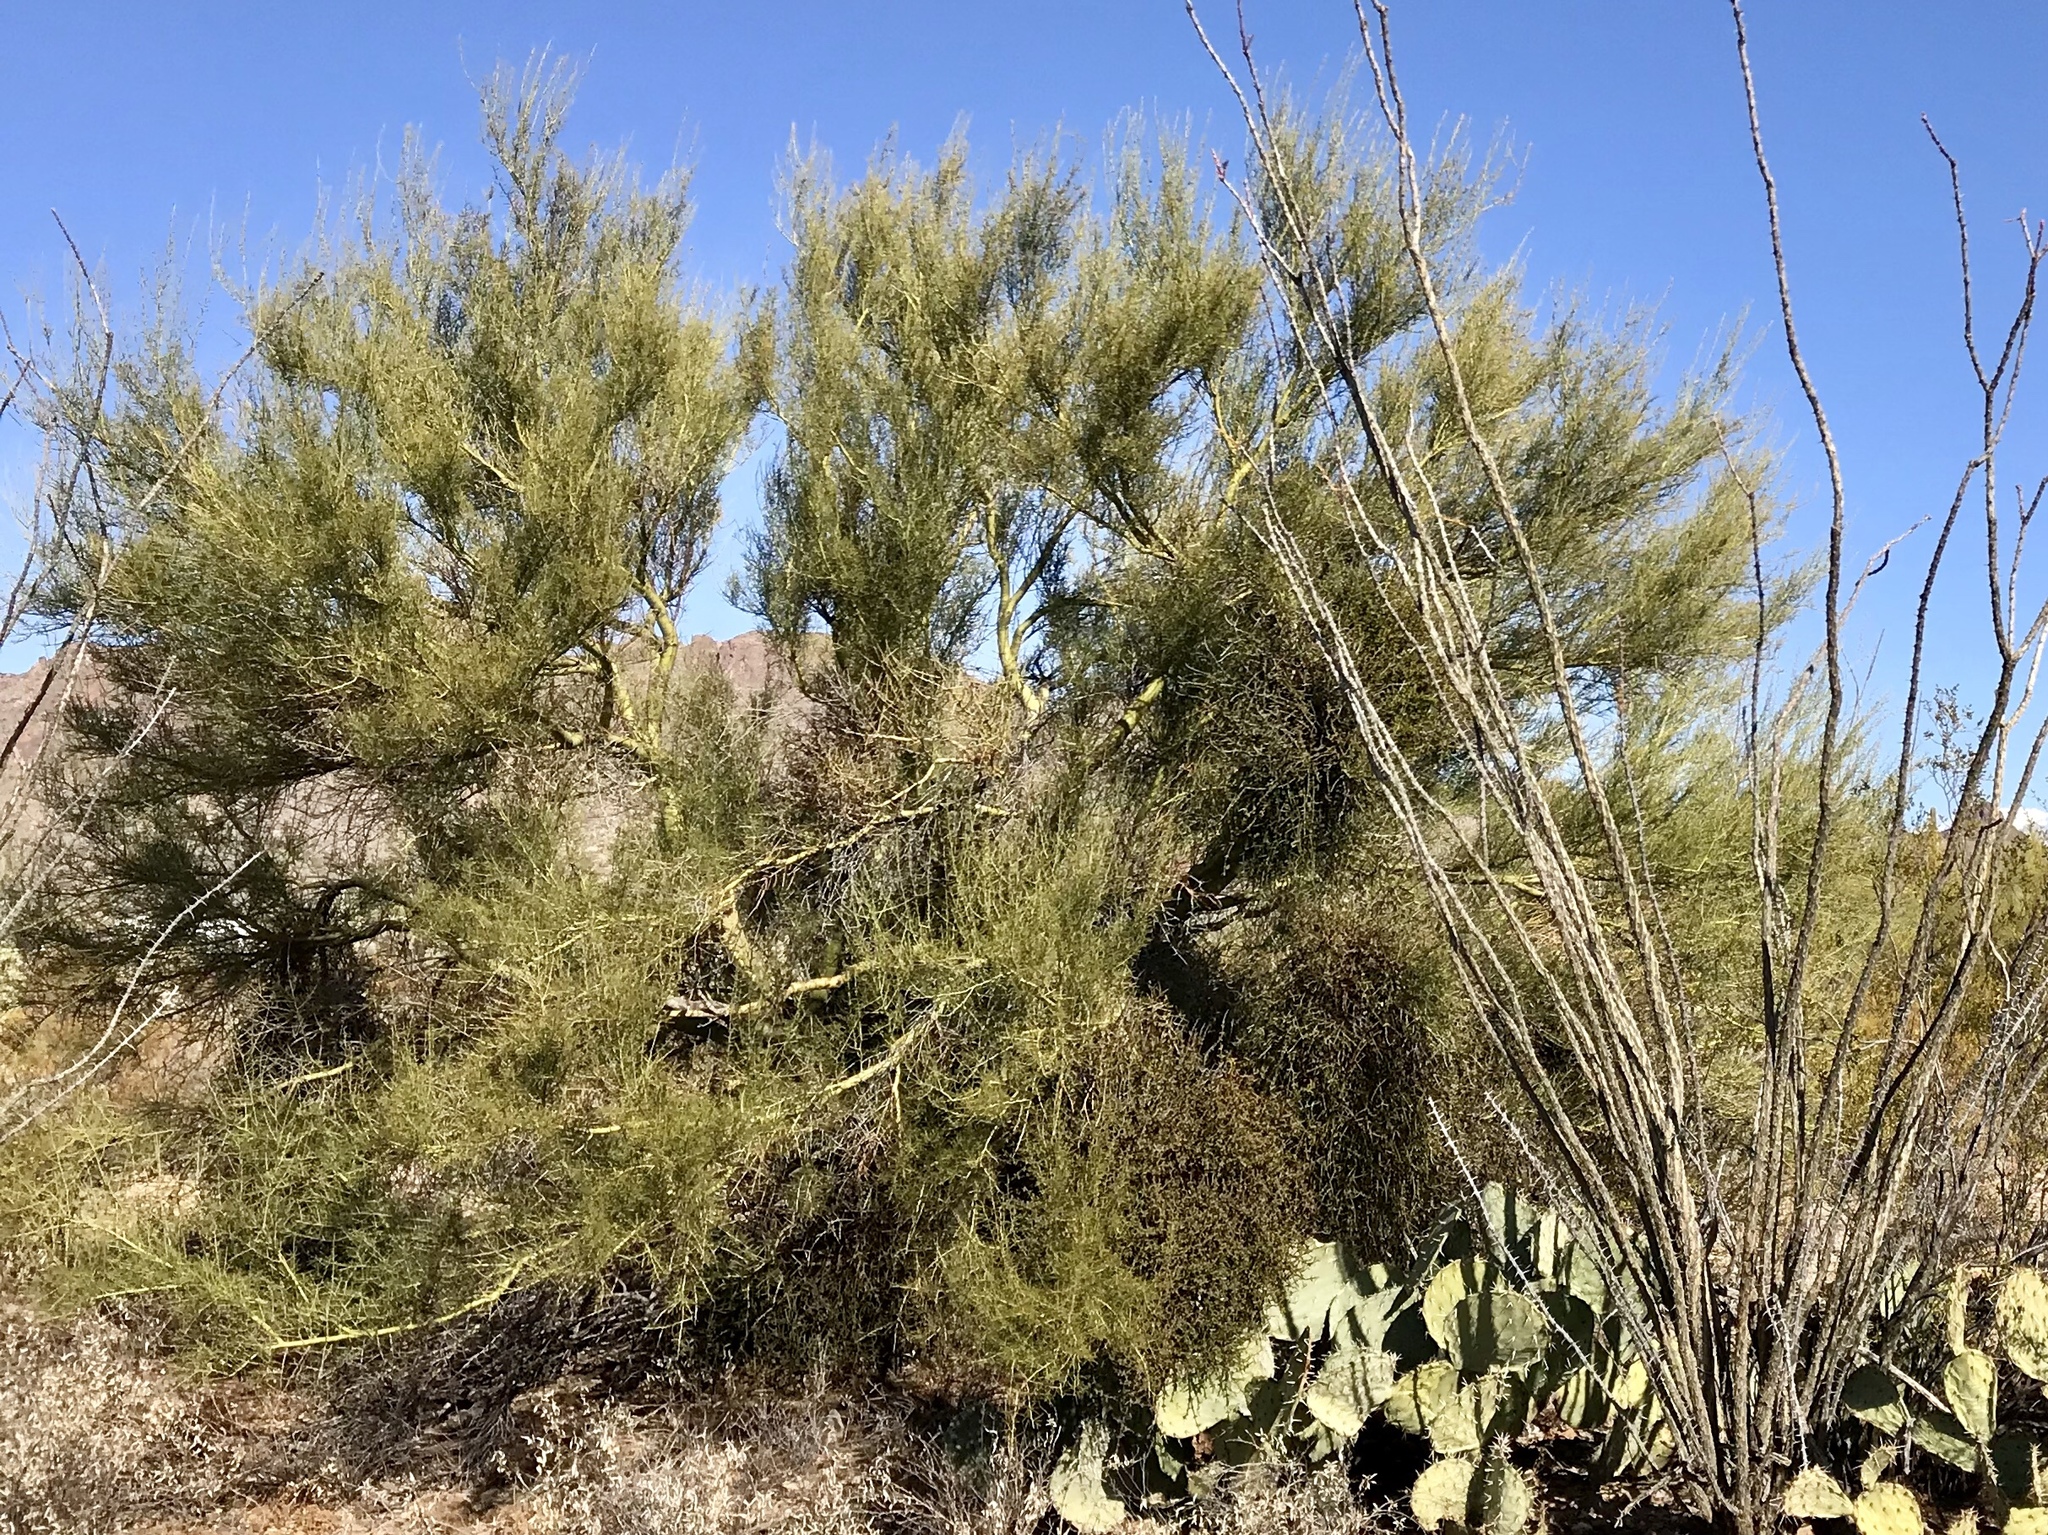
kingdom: Plantae
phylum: Tracheophyta
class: Magnoliopsida
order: Fabales
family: Fabaceae
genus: Parkinsonia
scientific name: Parkinsonia microphylla
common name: Yellow paloverde
